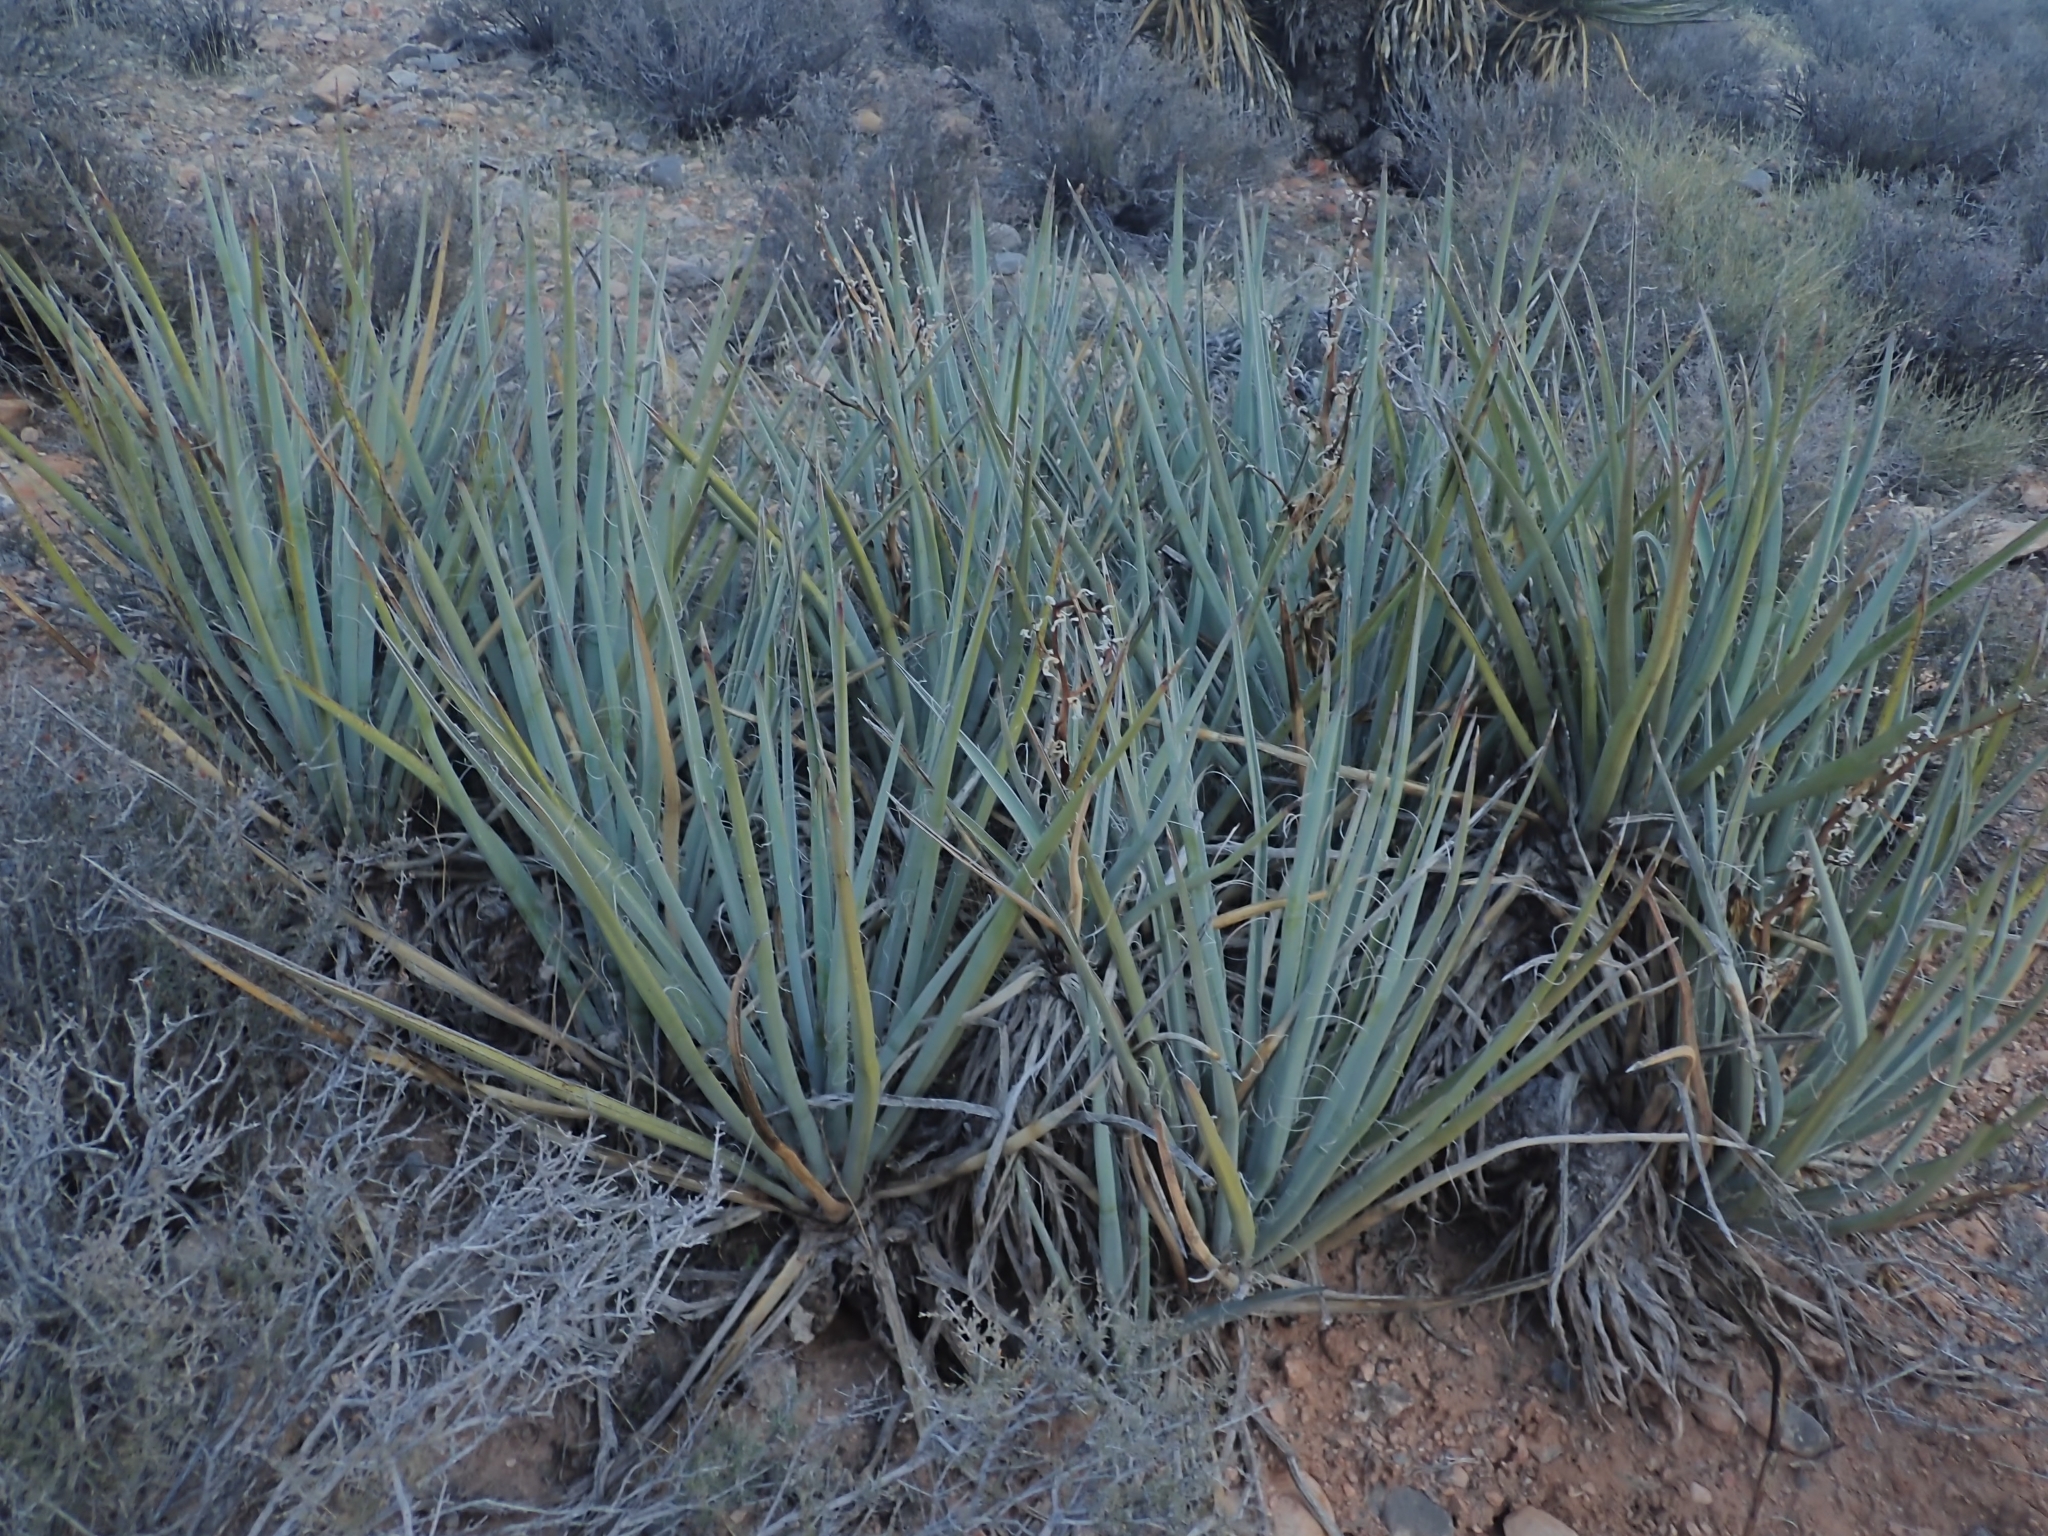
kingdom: Plantae
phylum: Tracheophyta
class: Liliopsida
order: Asparagales
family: Asparagaceae
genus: Yucca
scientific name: Yucca baccata
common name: Banana yucca
